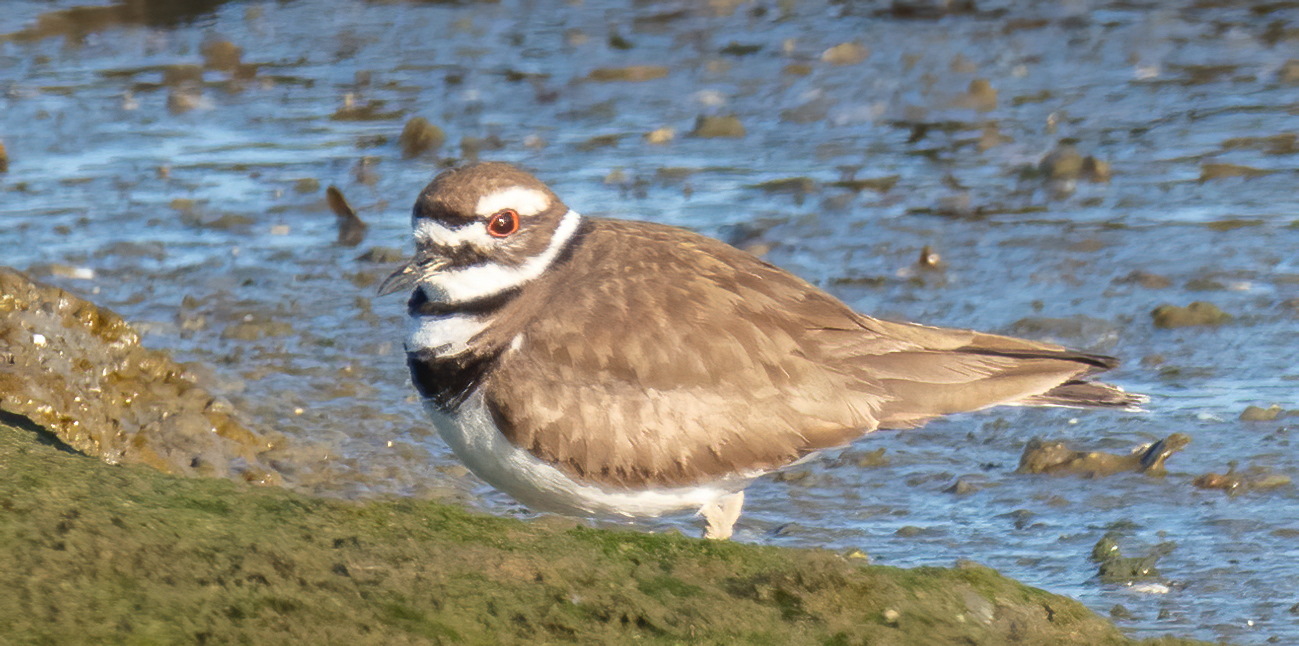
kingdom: Animalia
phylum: Chordata
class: Aves
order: Charadriiformes
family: Charadriidae
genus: Charadrius
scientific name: Charadrius vociferus
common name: Killdeer
